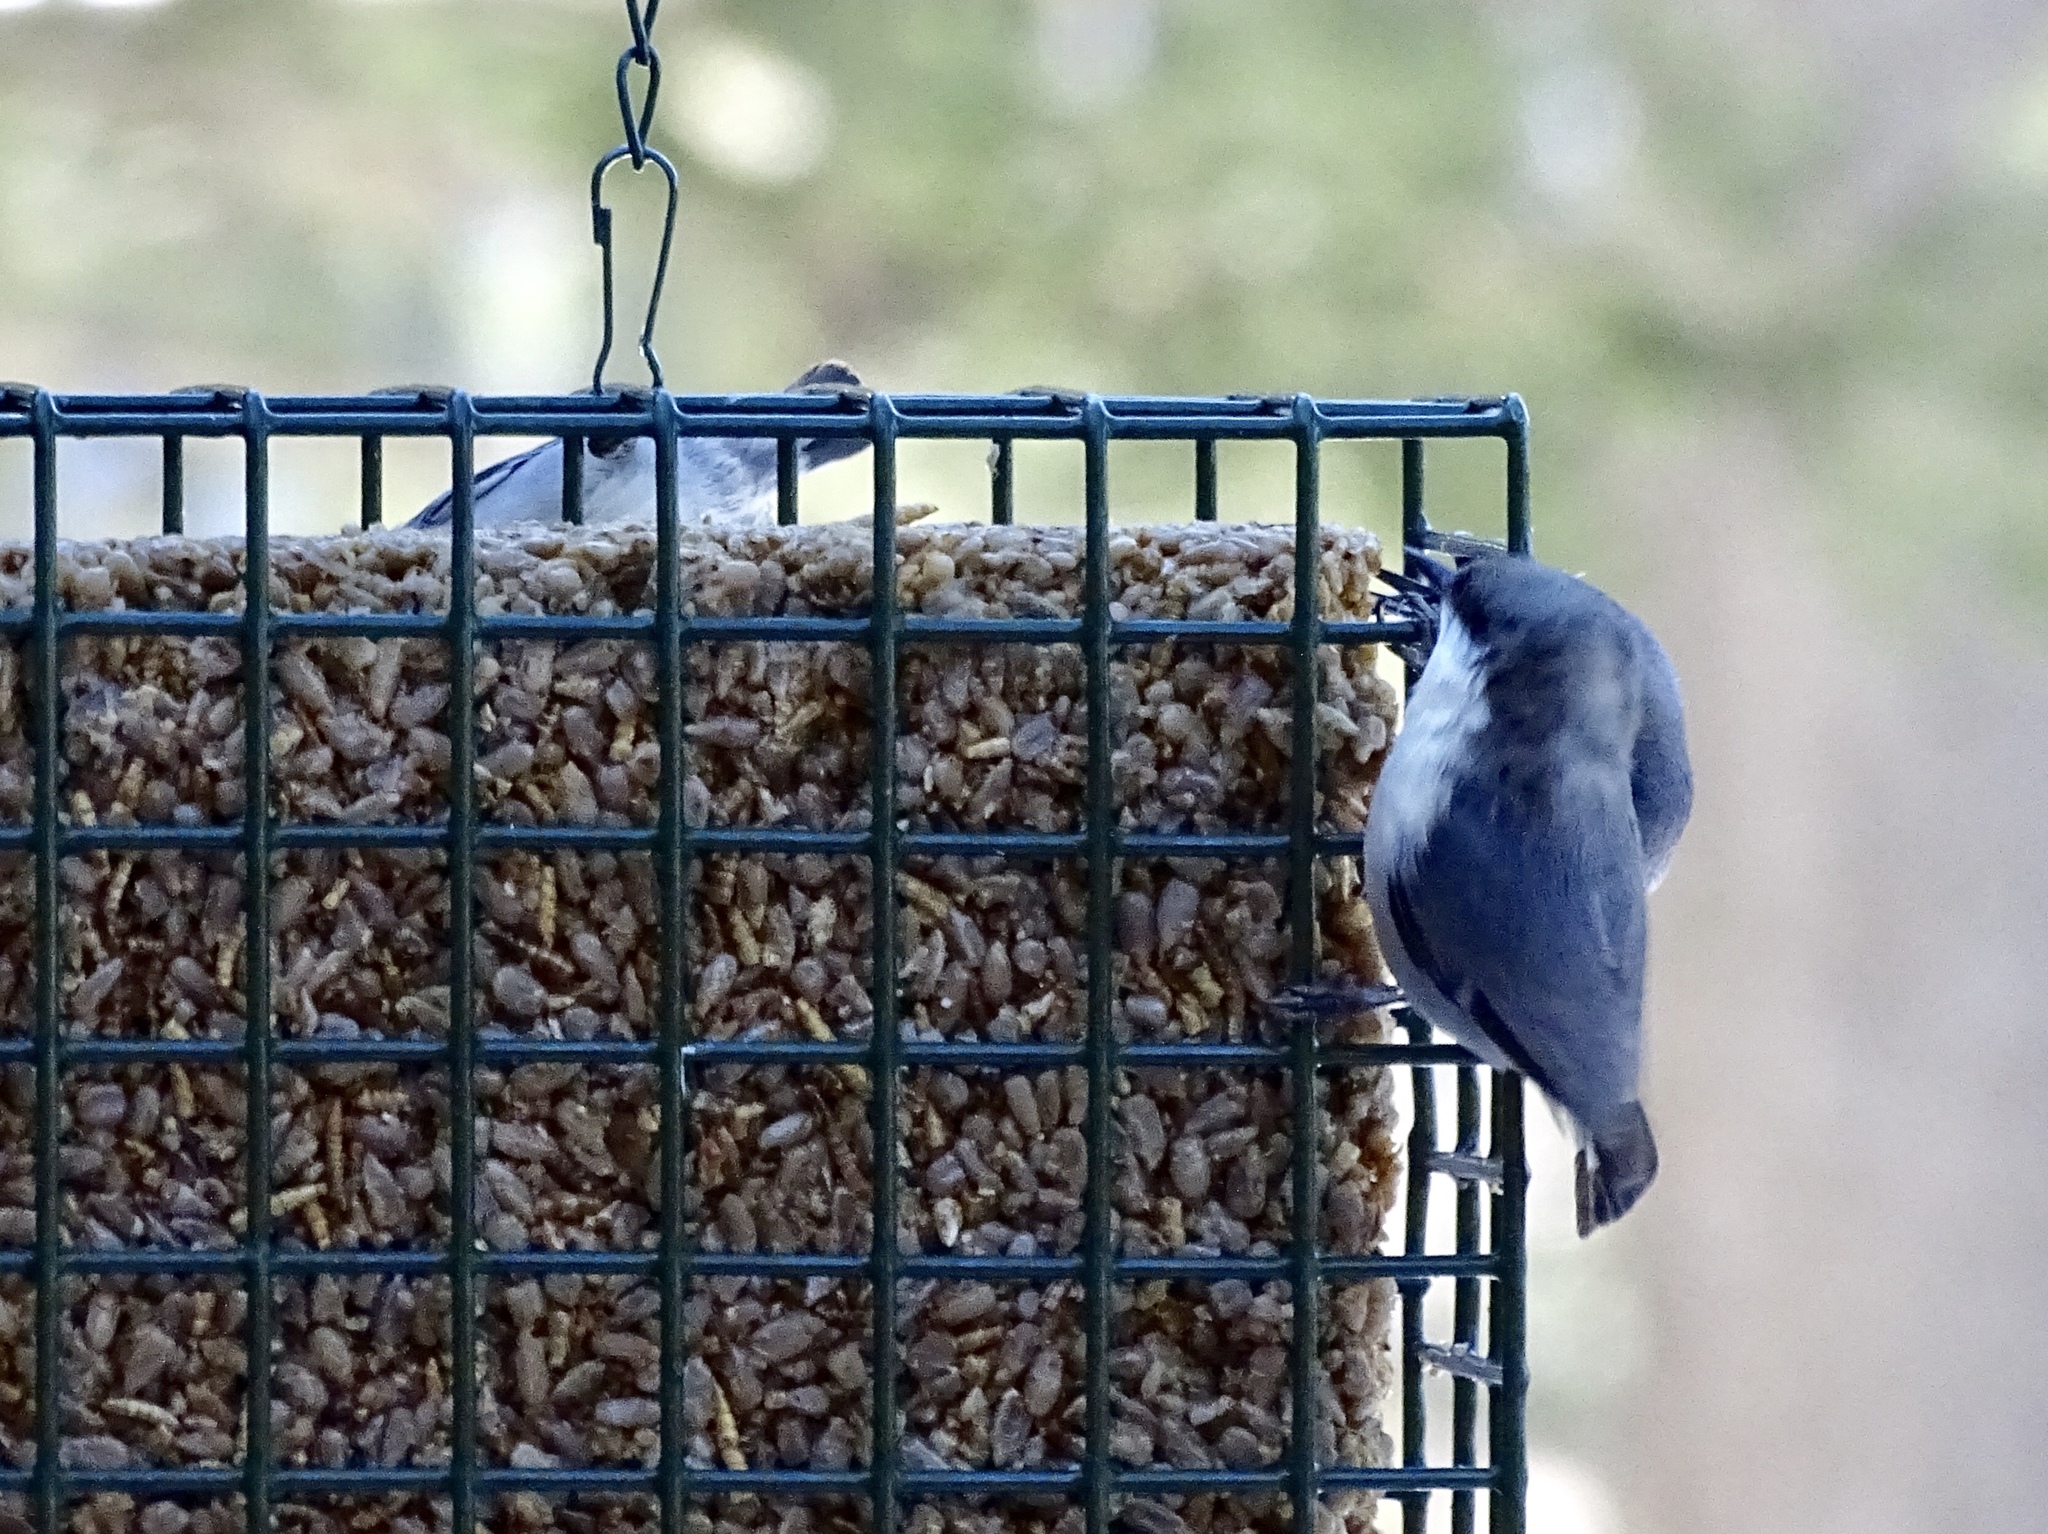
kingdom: Animalia
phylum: Chordata
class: Aves
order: Passeriformes
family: Sittidae
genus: Sitta
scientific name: Sitta pygmaea
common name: Pygmy nuthatch
